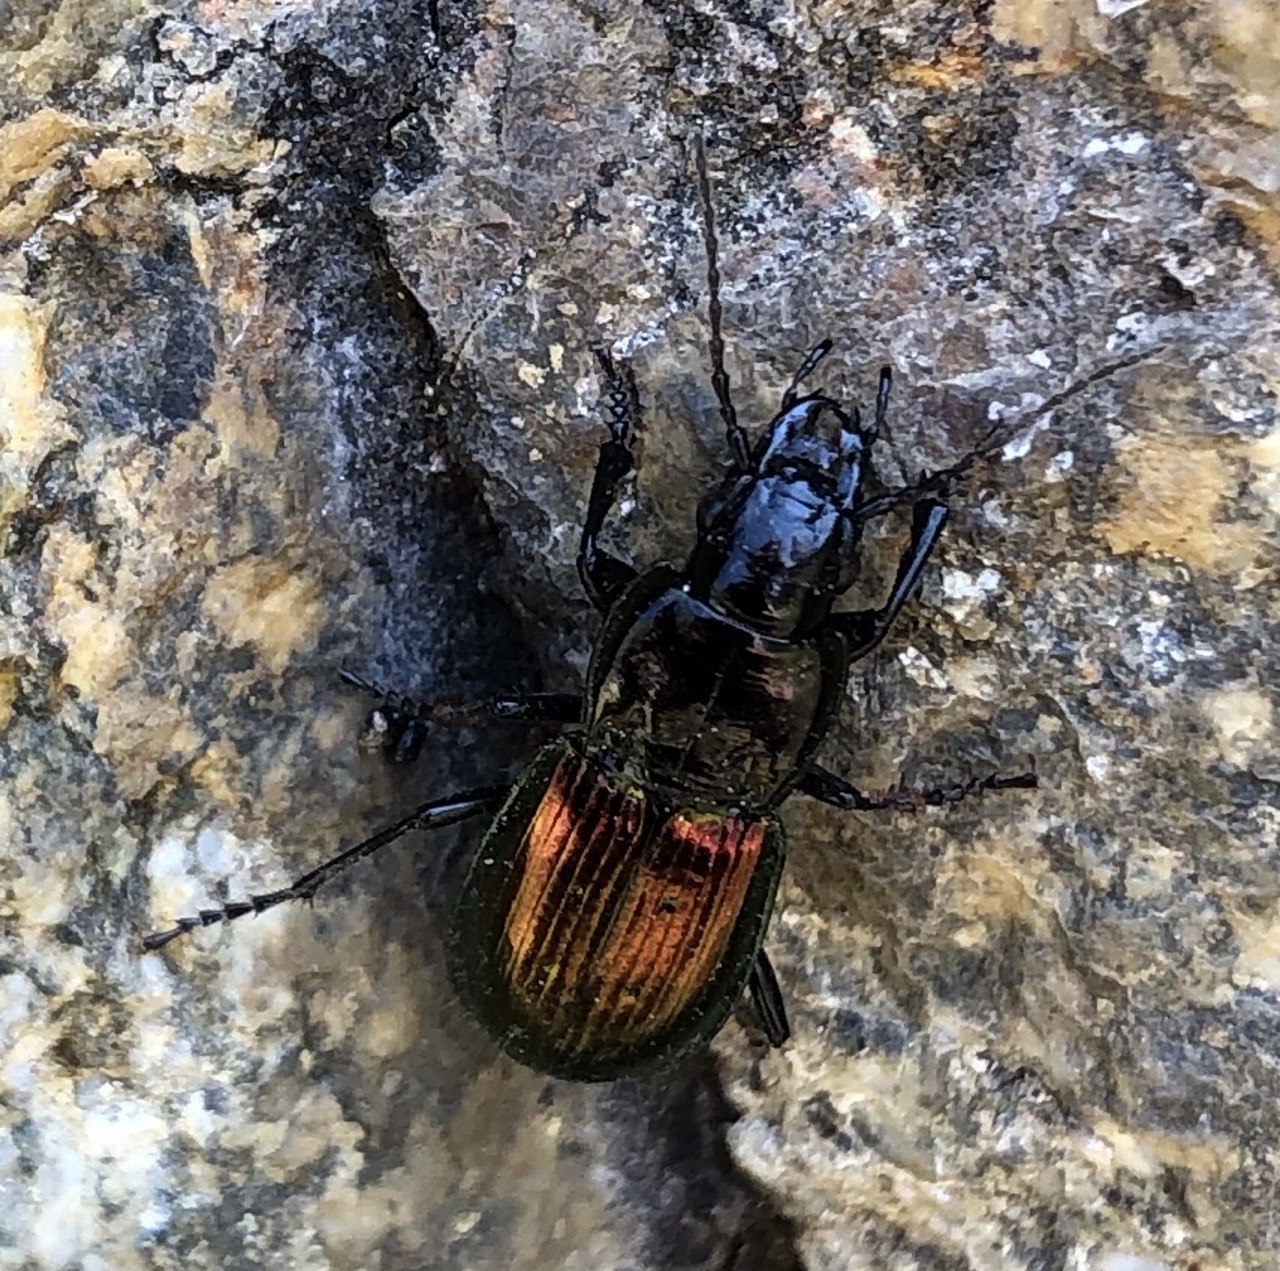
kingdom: Animalia
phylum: Arthropoda
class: Insecta
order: Coleoptera
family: Carabidae
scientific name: Carabidae
